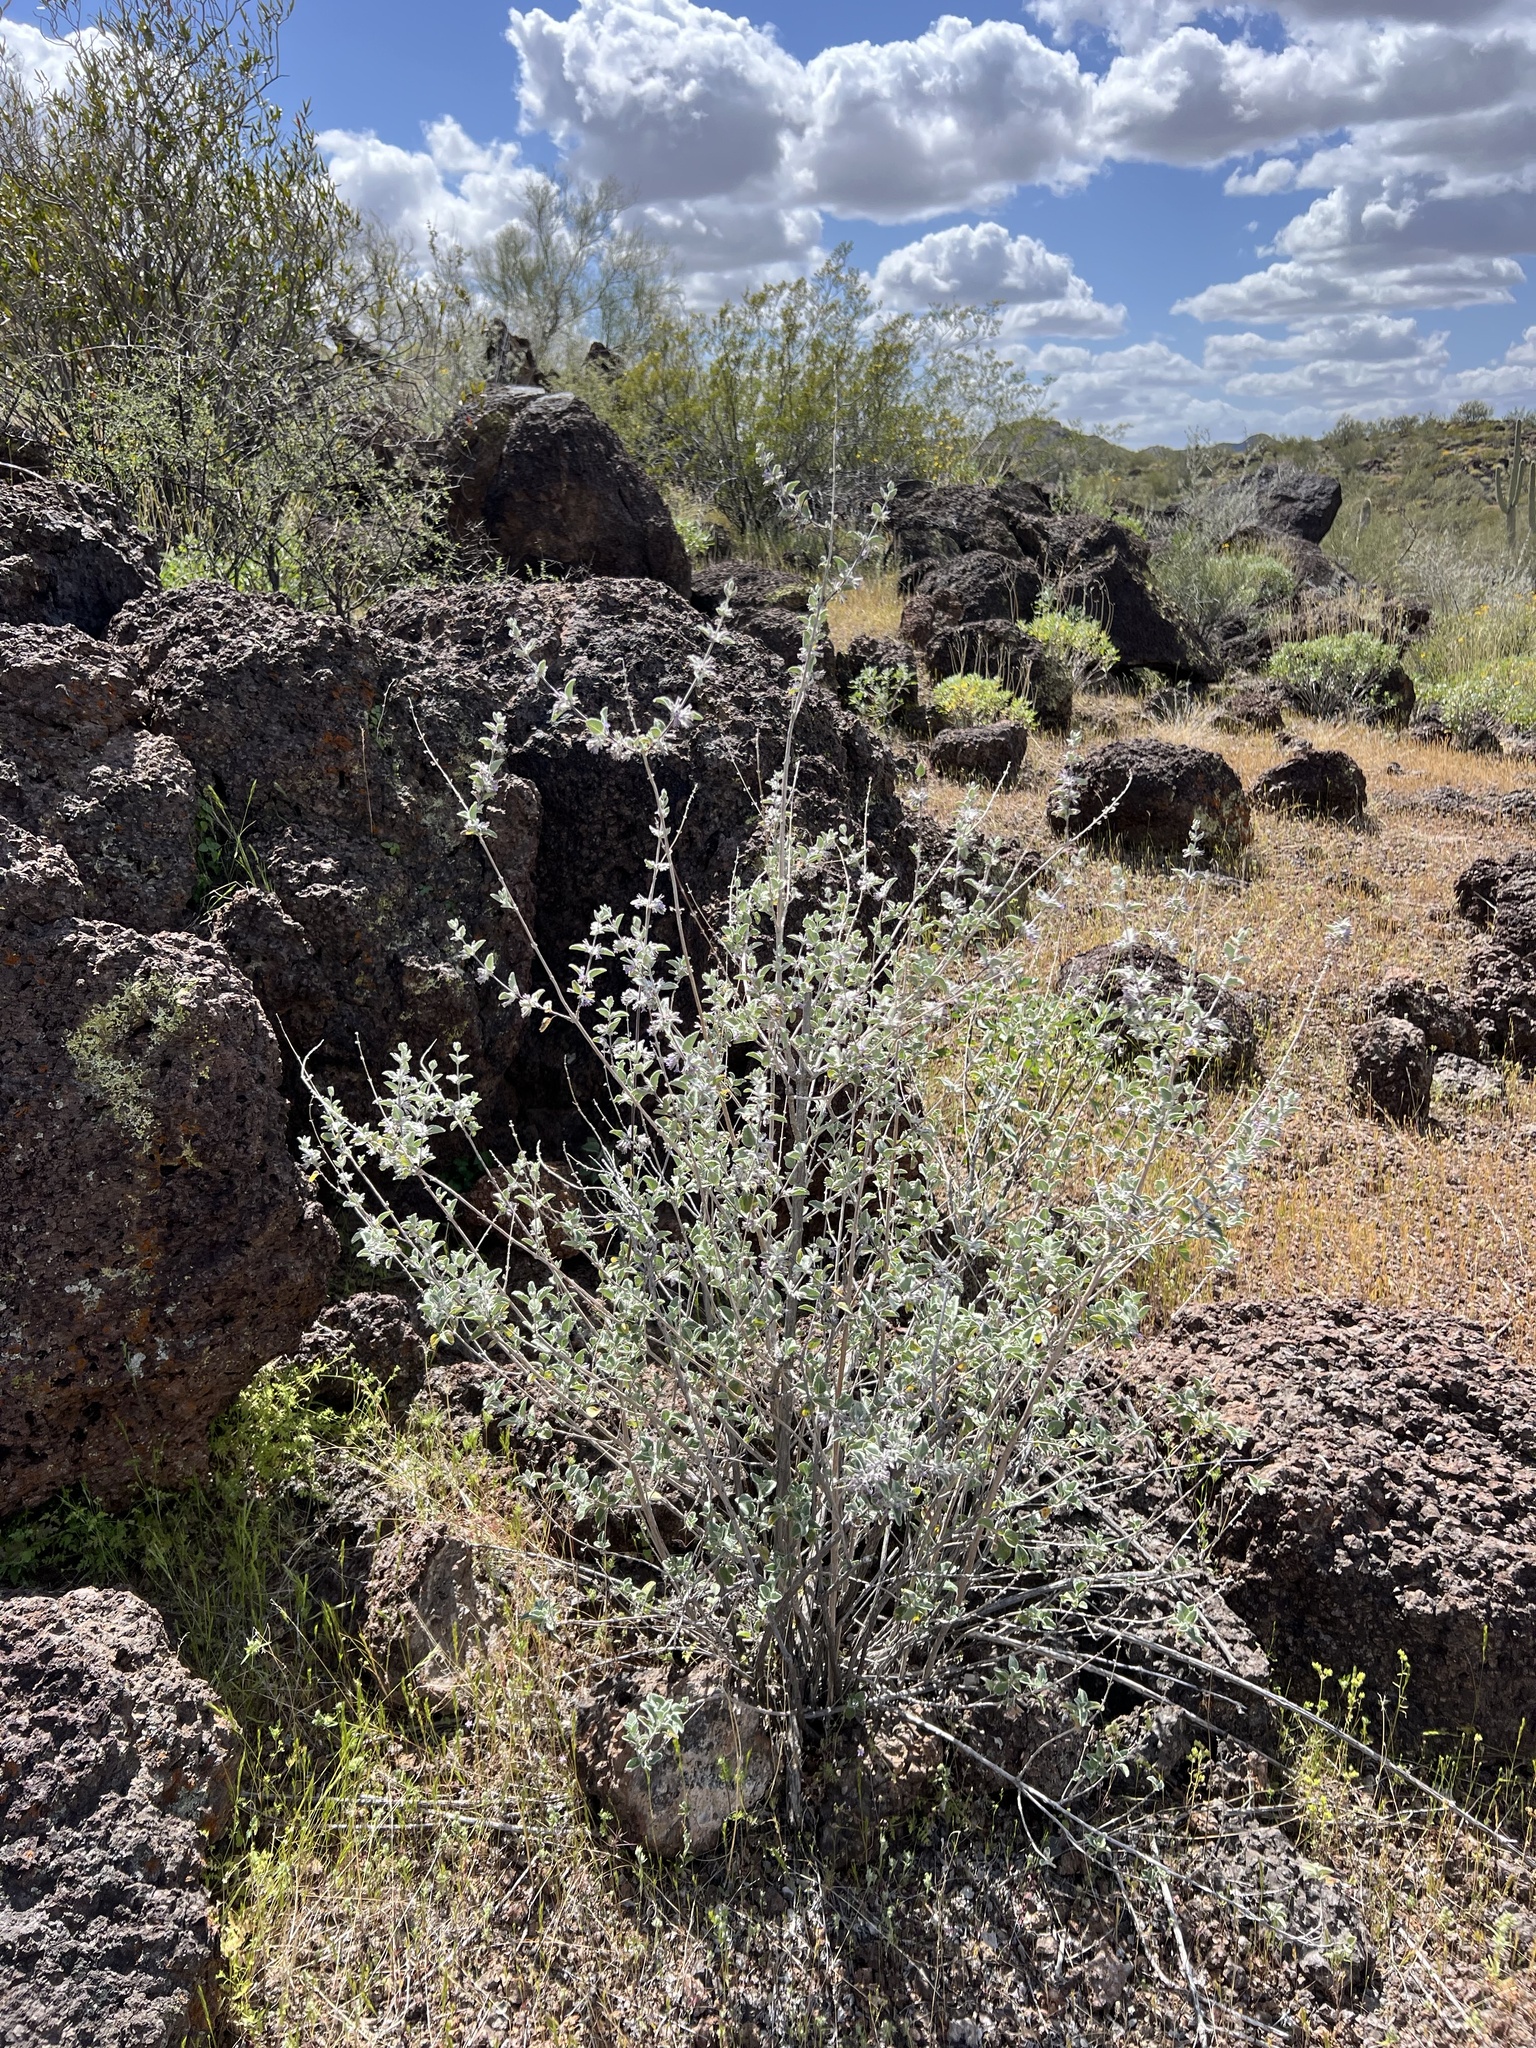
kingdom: Plantae
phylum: Tracheophyta
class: Magnoliopsida
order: Lamiales
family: Lamiaceae
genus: Condea
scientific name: Condea emoryi
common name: Chia
